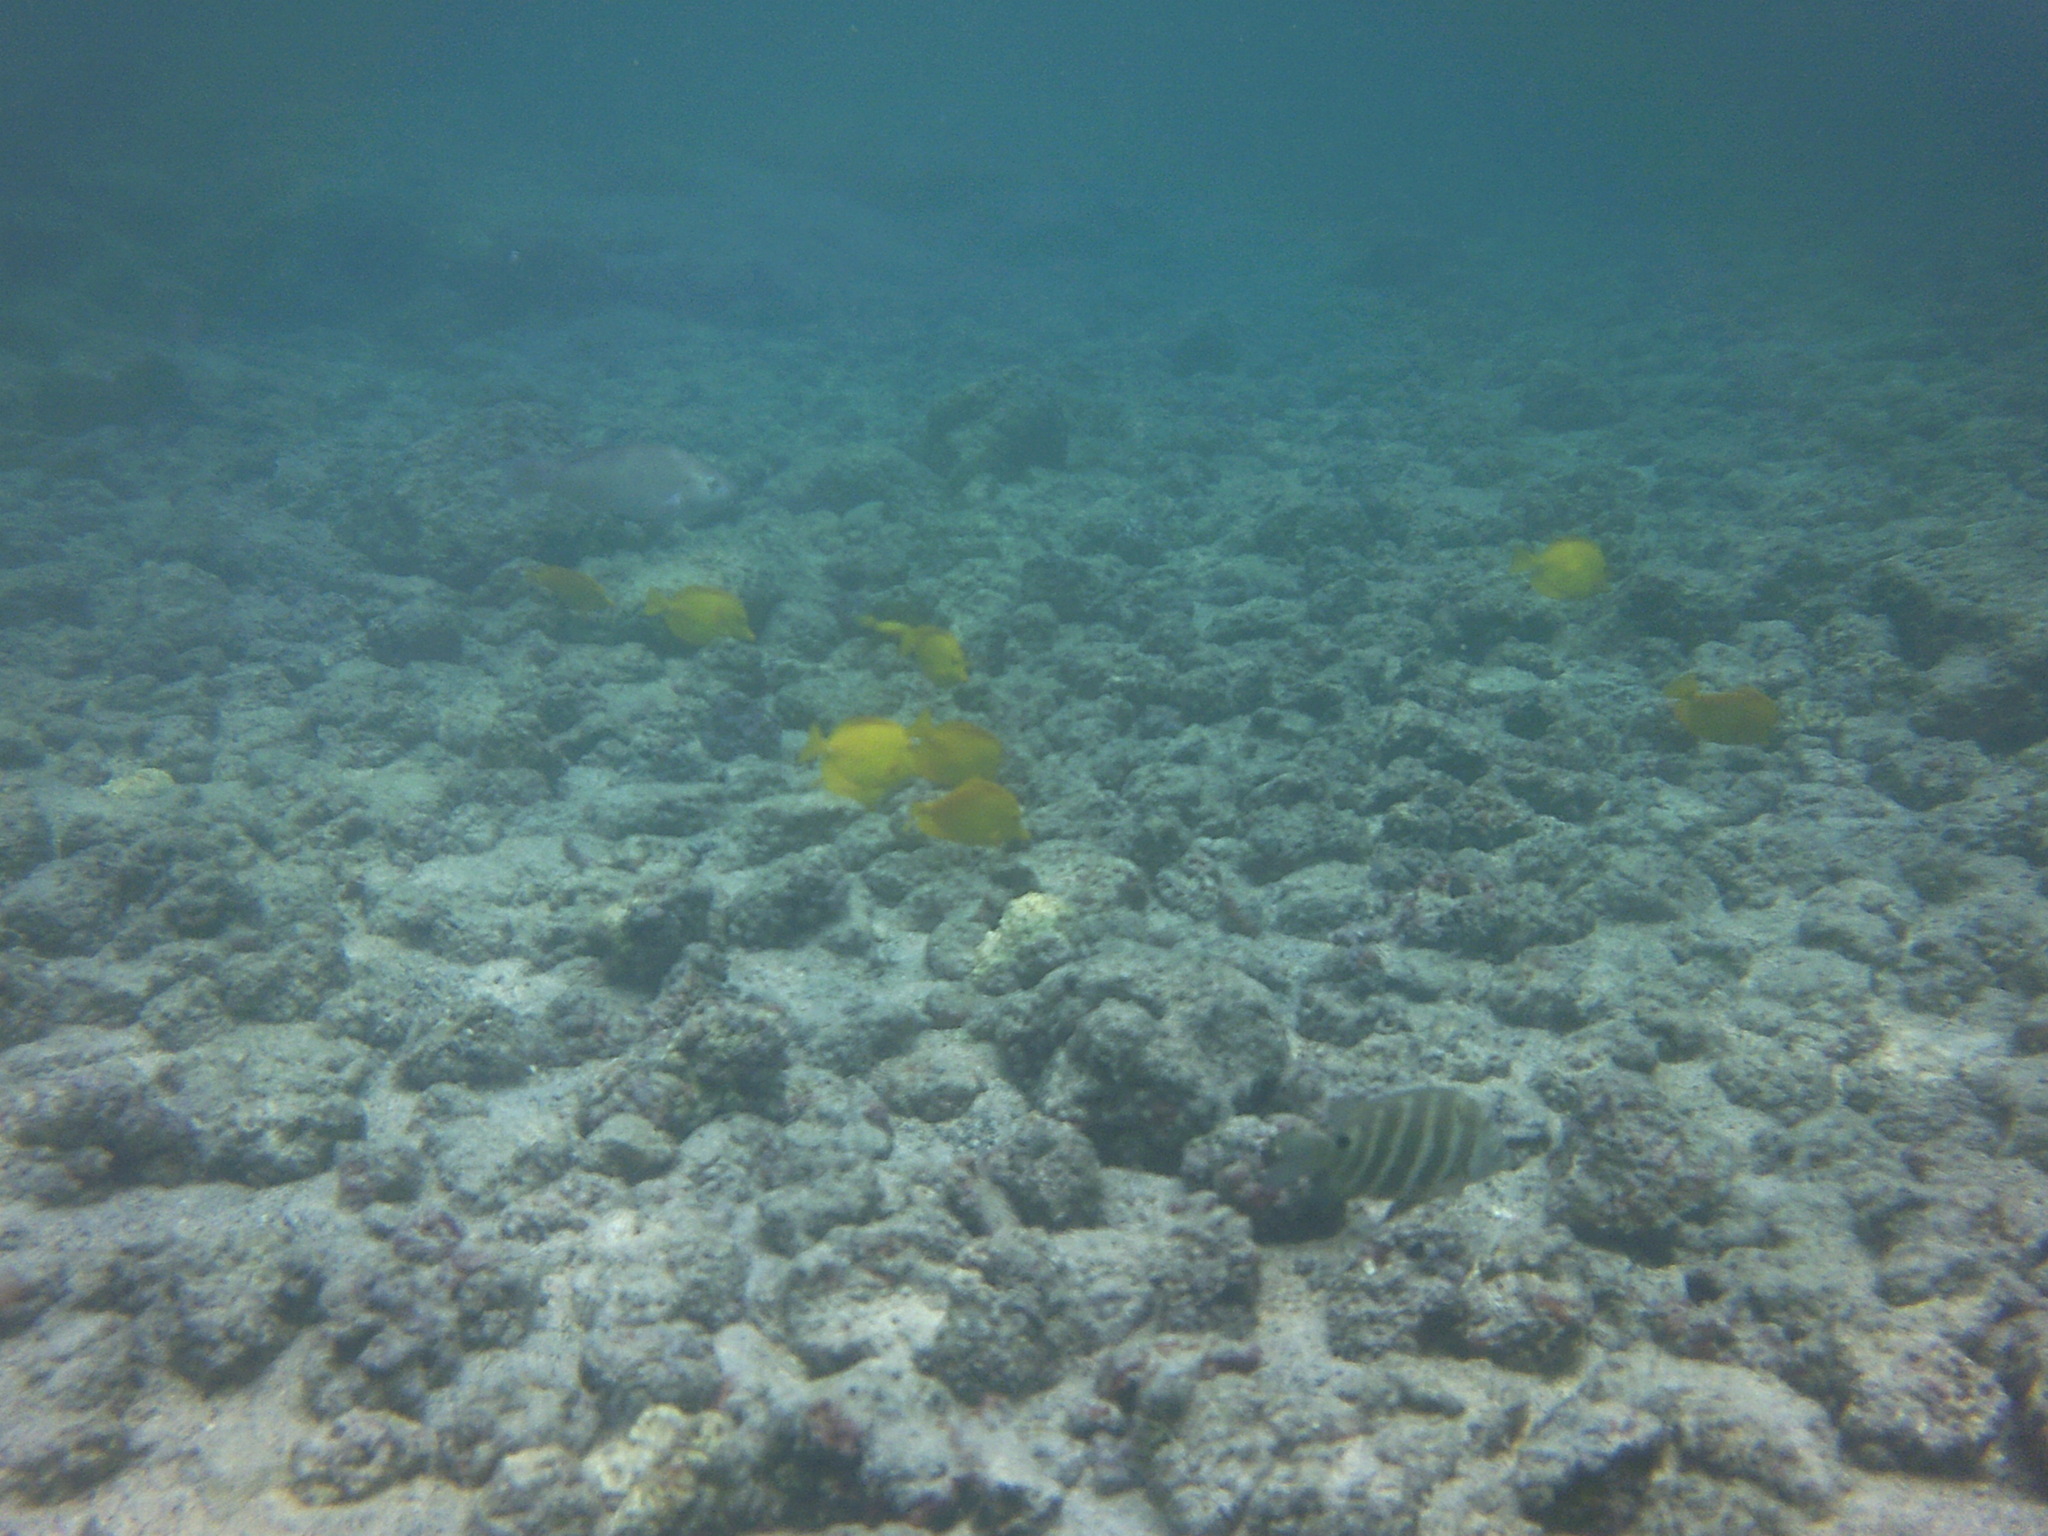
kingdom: Animalia
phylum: Chordata
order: Perciformes
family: Acanthuridae
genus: Zebrasoma
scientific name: Zebrasoma flavescens
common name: Yellow tang
